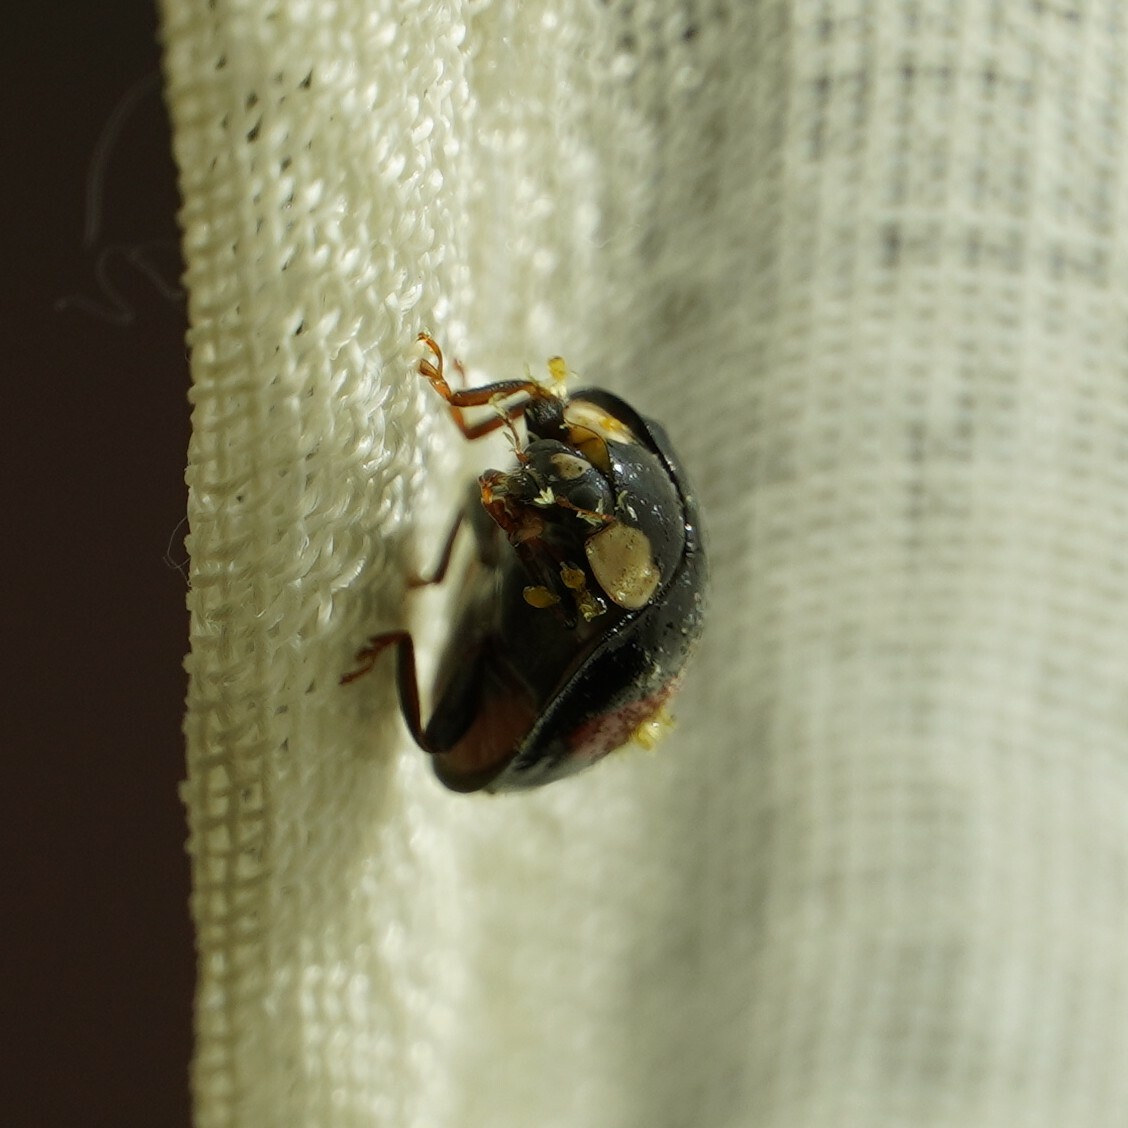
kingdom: Fungi
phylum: Ascomycota
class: Laboulbeniomycetes
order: Laboulbeniales
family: Laboulbeniaceae
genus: Hesperomyces
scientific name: Hesperomyces harmoniae
